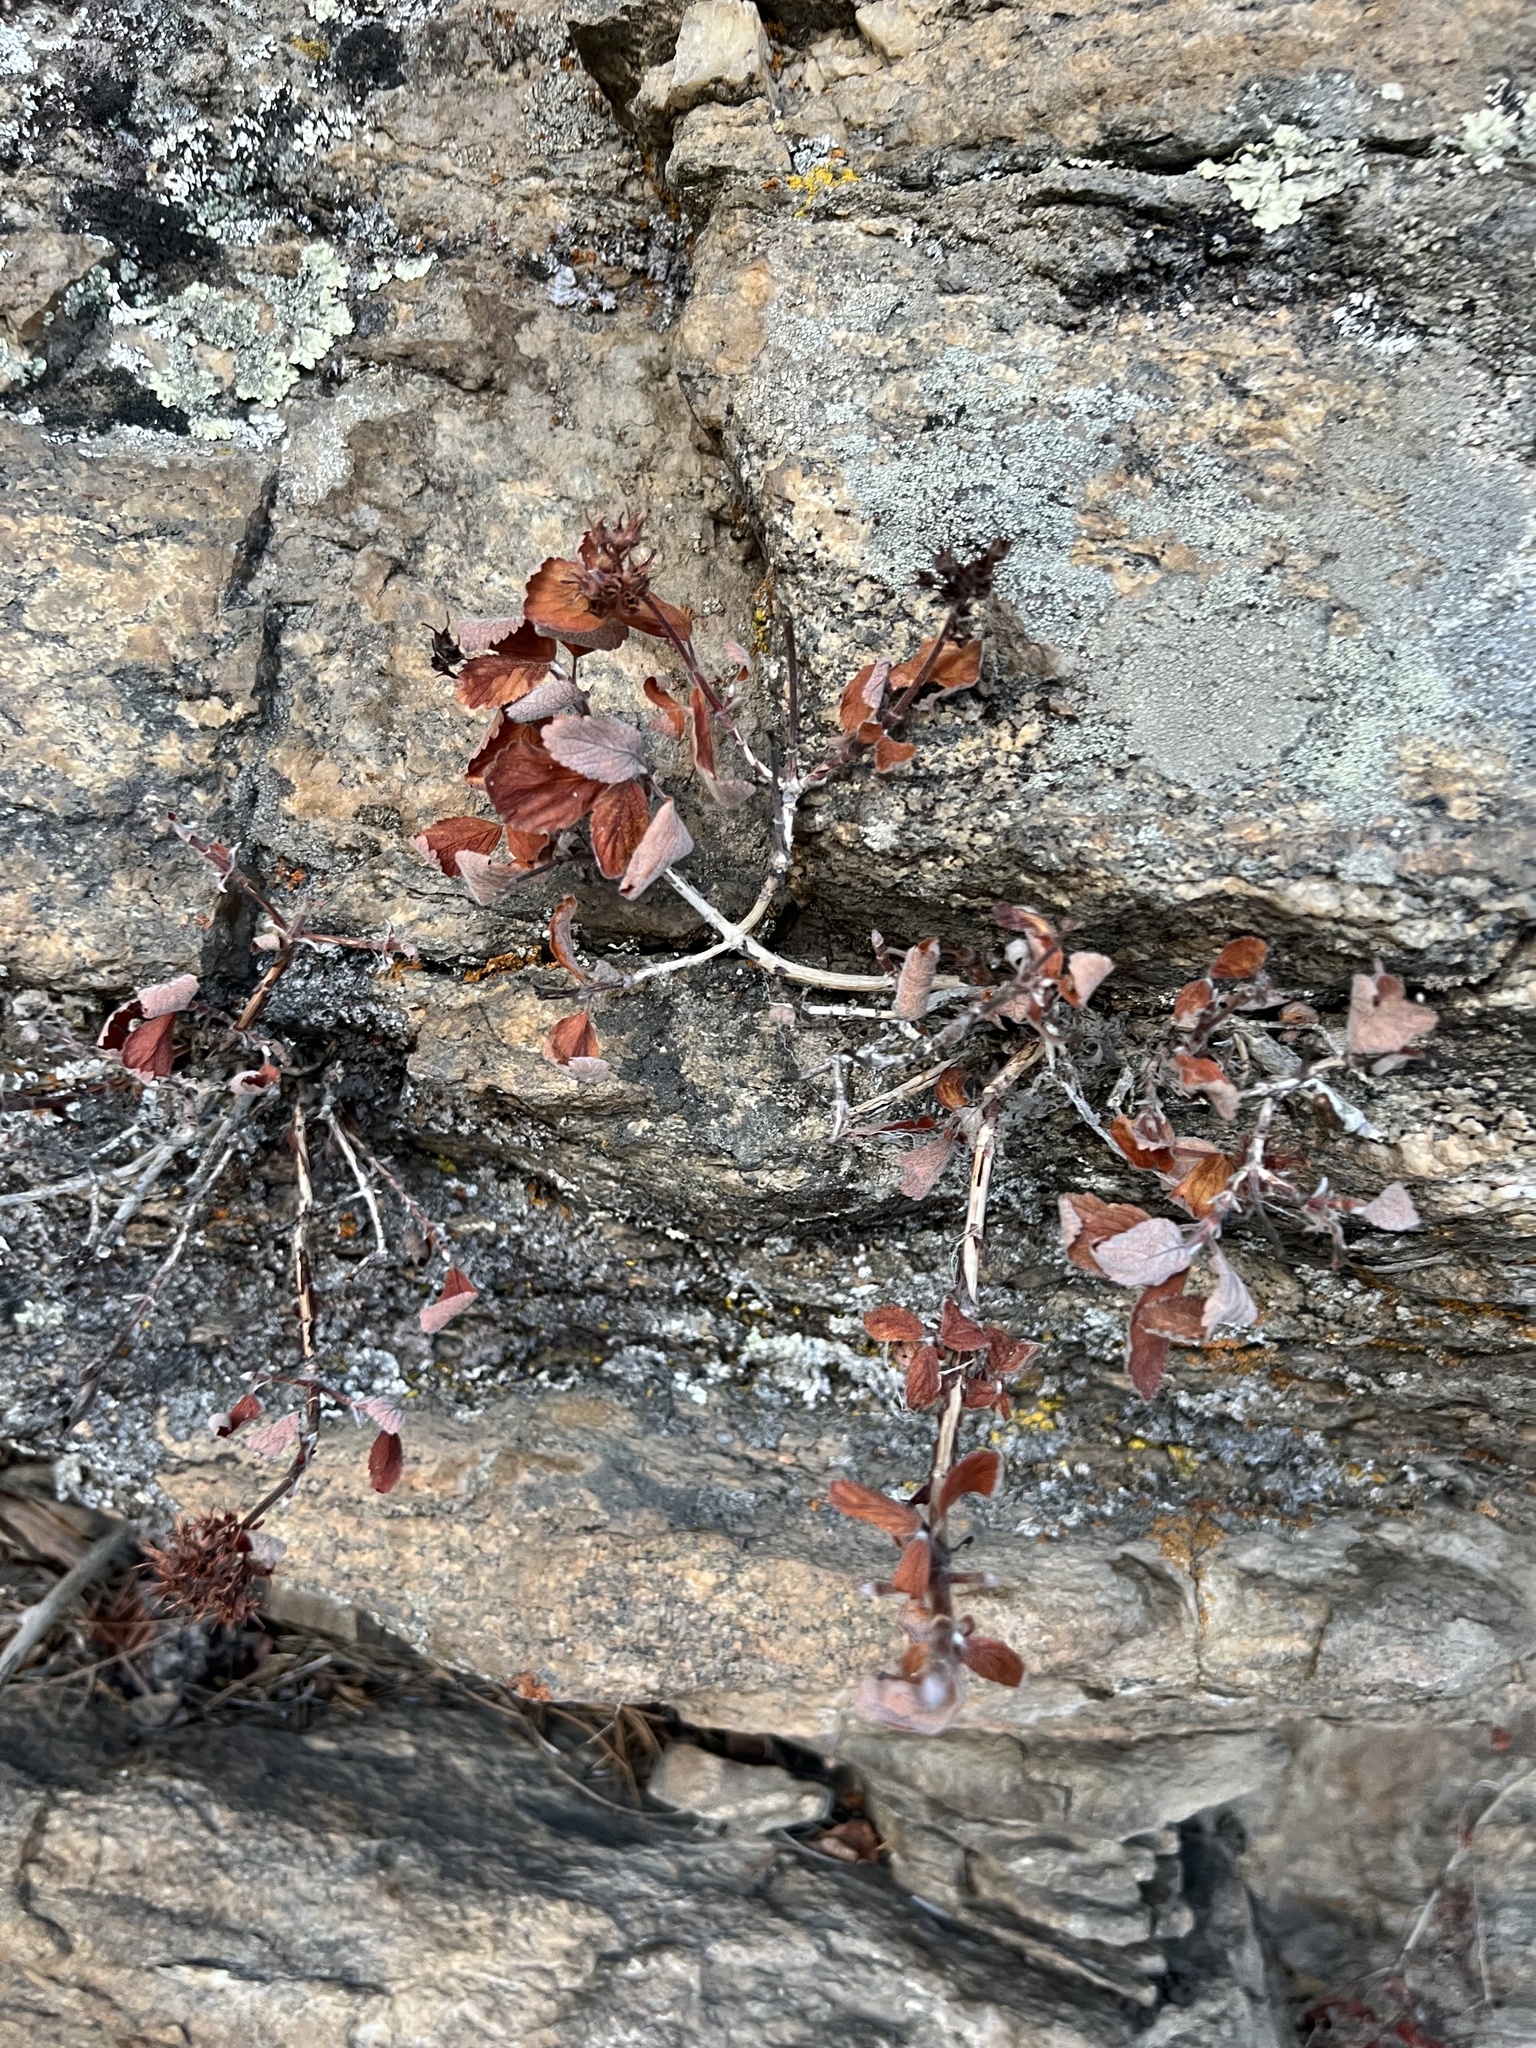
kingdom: Plantae
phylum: Tracheophyta
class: Magnoliopsida
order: Cornales
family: Hydrangeaceae
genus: Jamesia
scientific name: Jamesia americana
